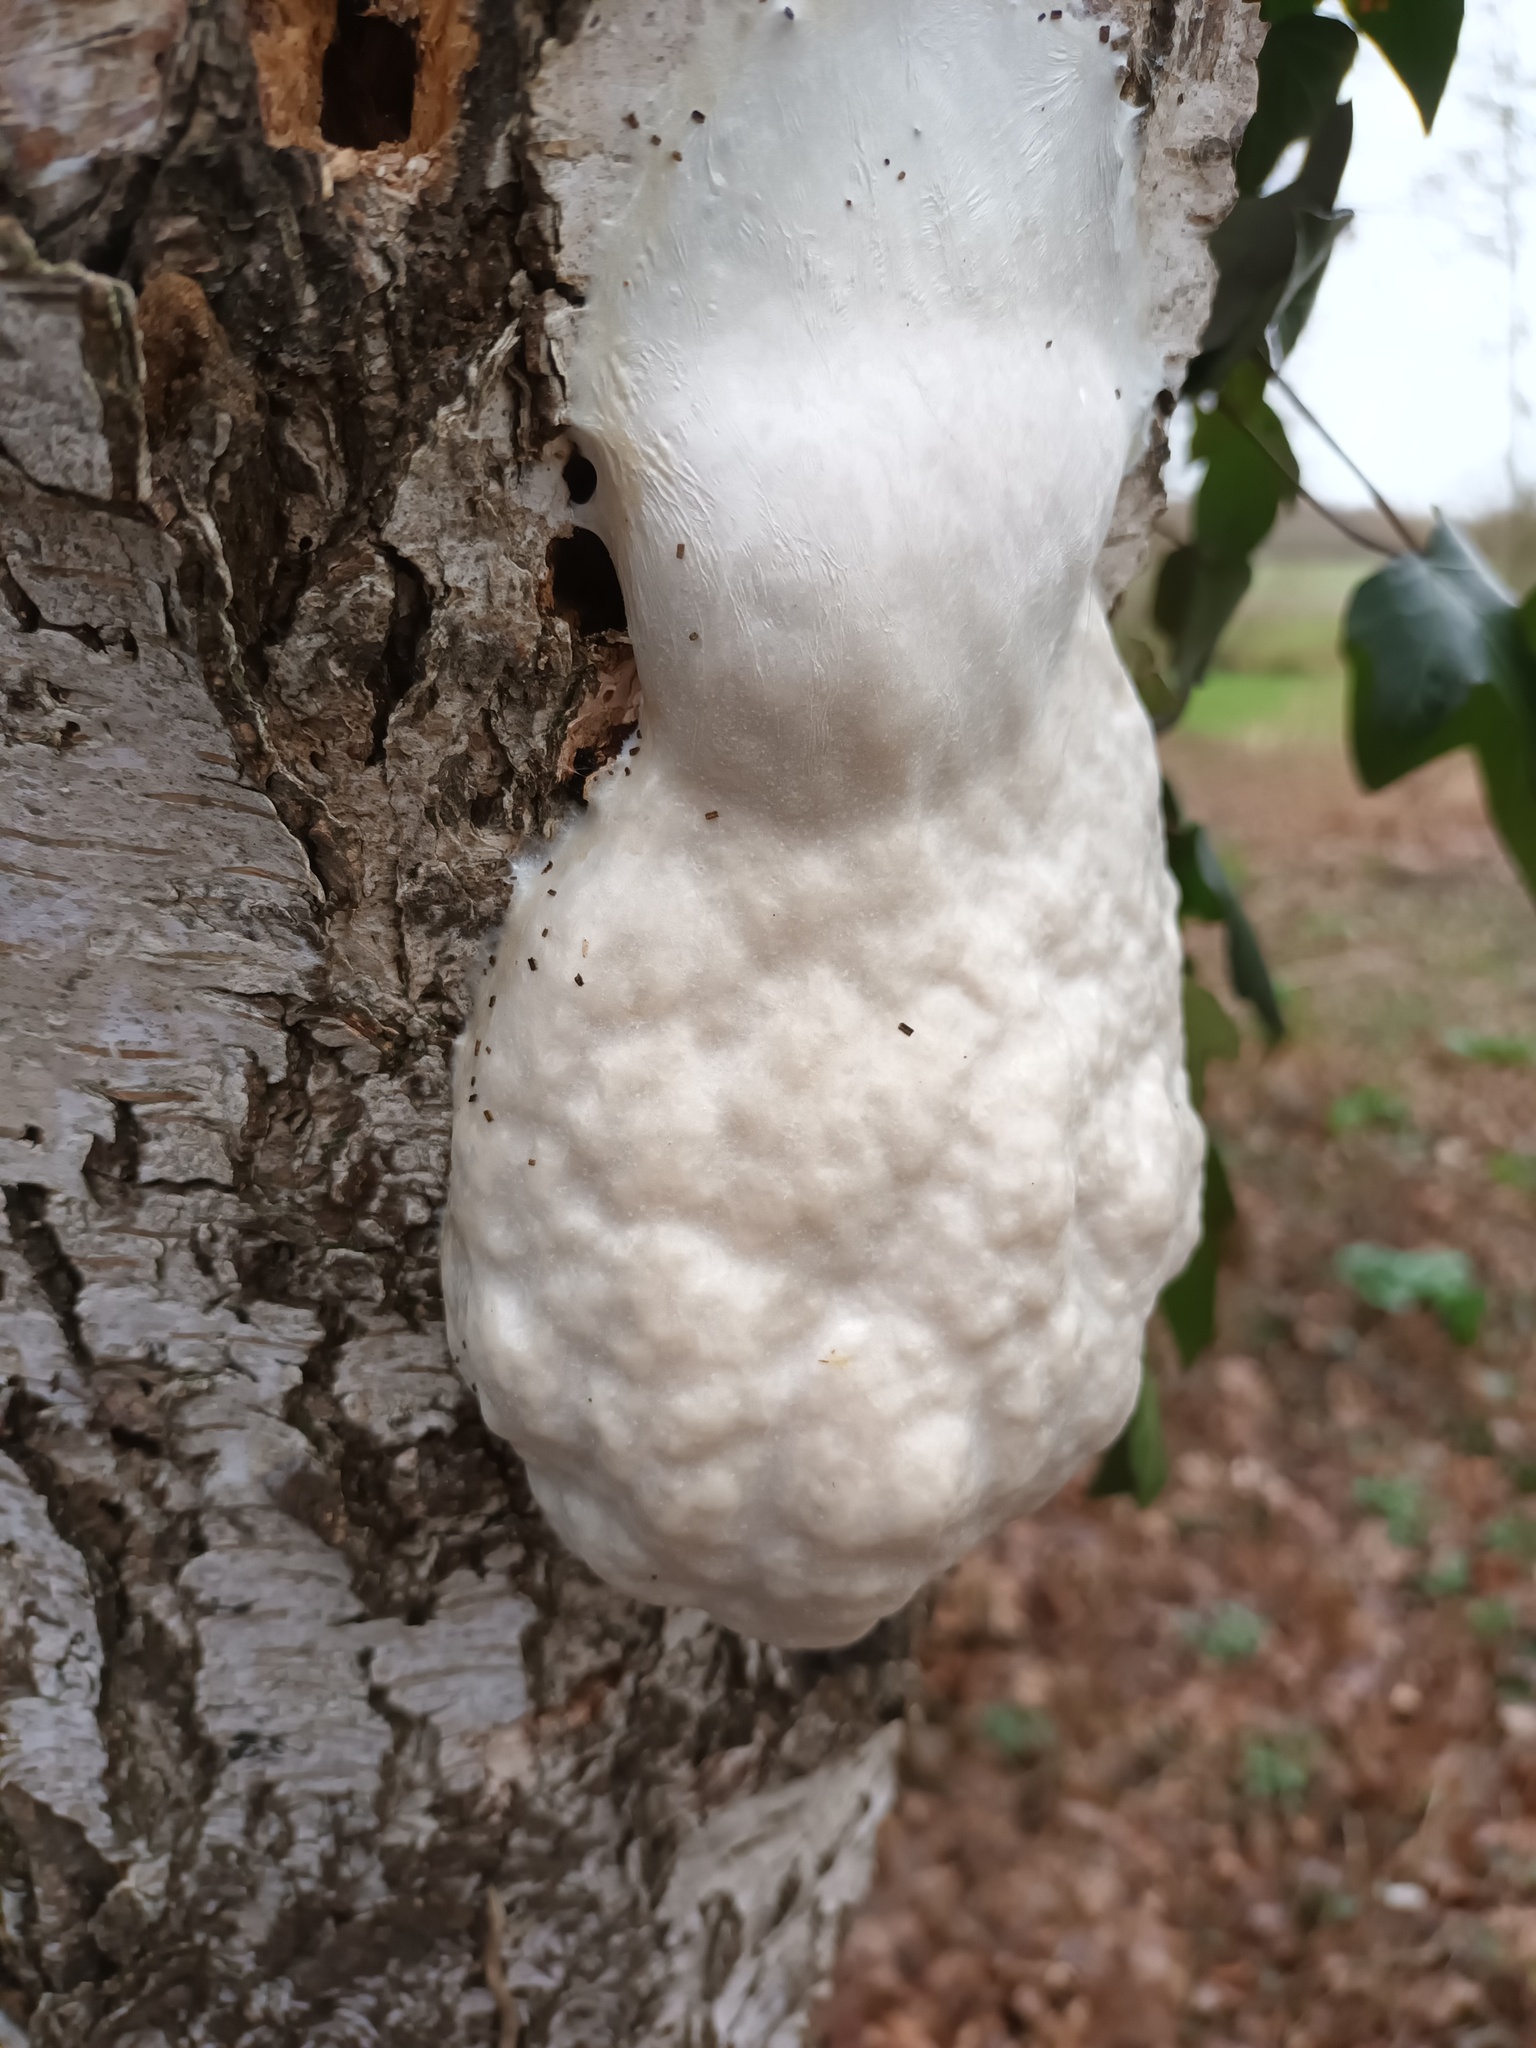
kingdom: Protozoa
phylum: Mycetozoa
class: Myxomycetes
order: Cribrariales
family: Tubiferaceae
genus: Reticularia
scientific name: Reticularia lycoperdon
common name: False puffball
